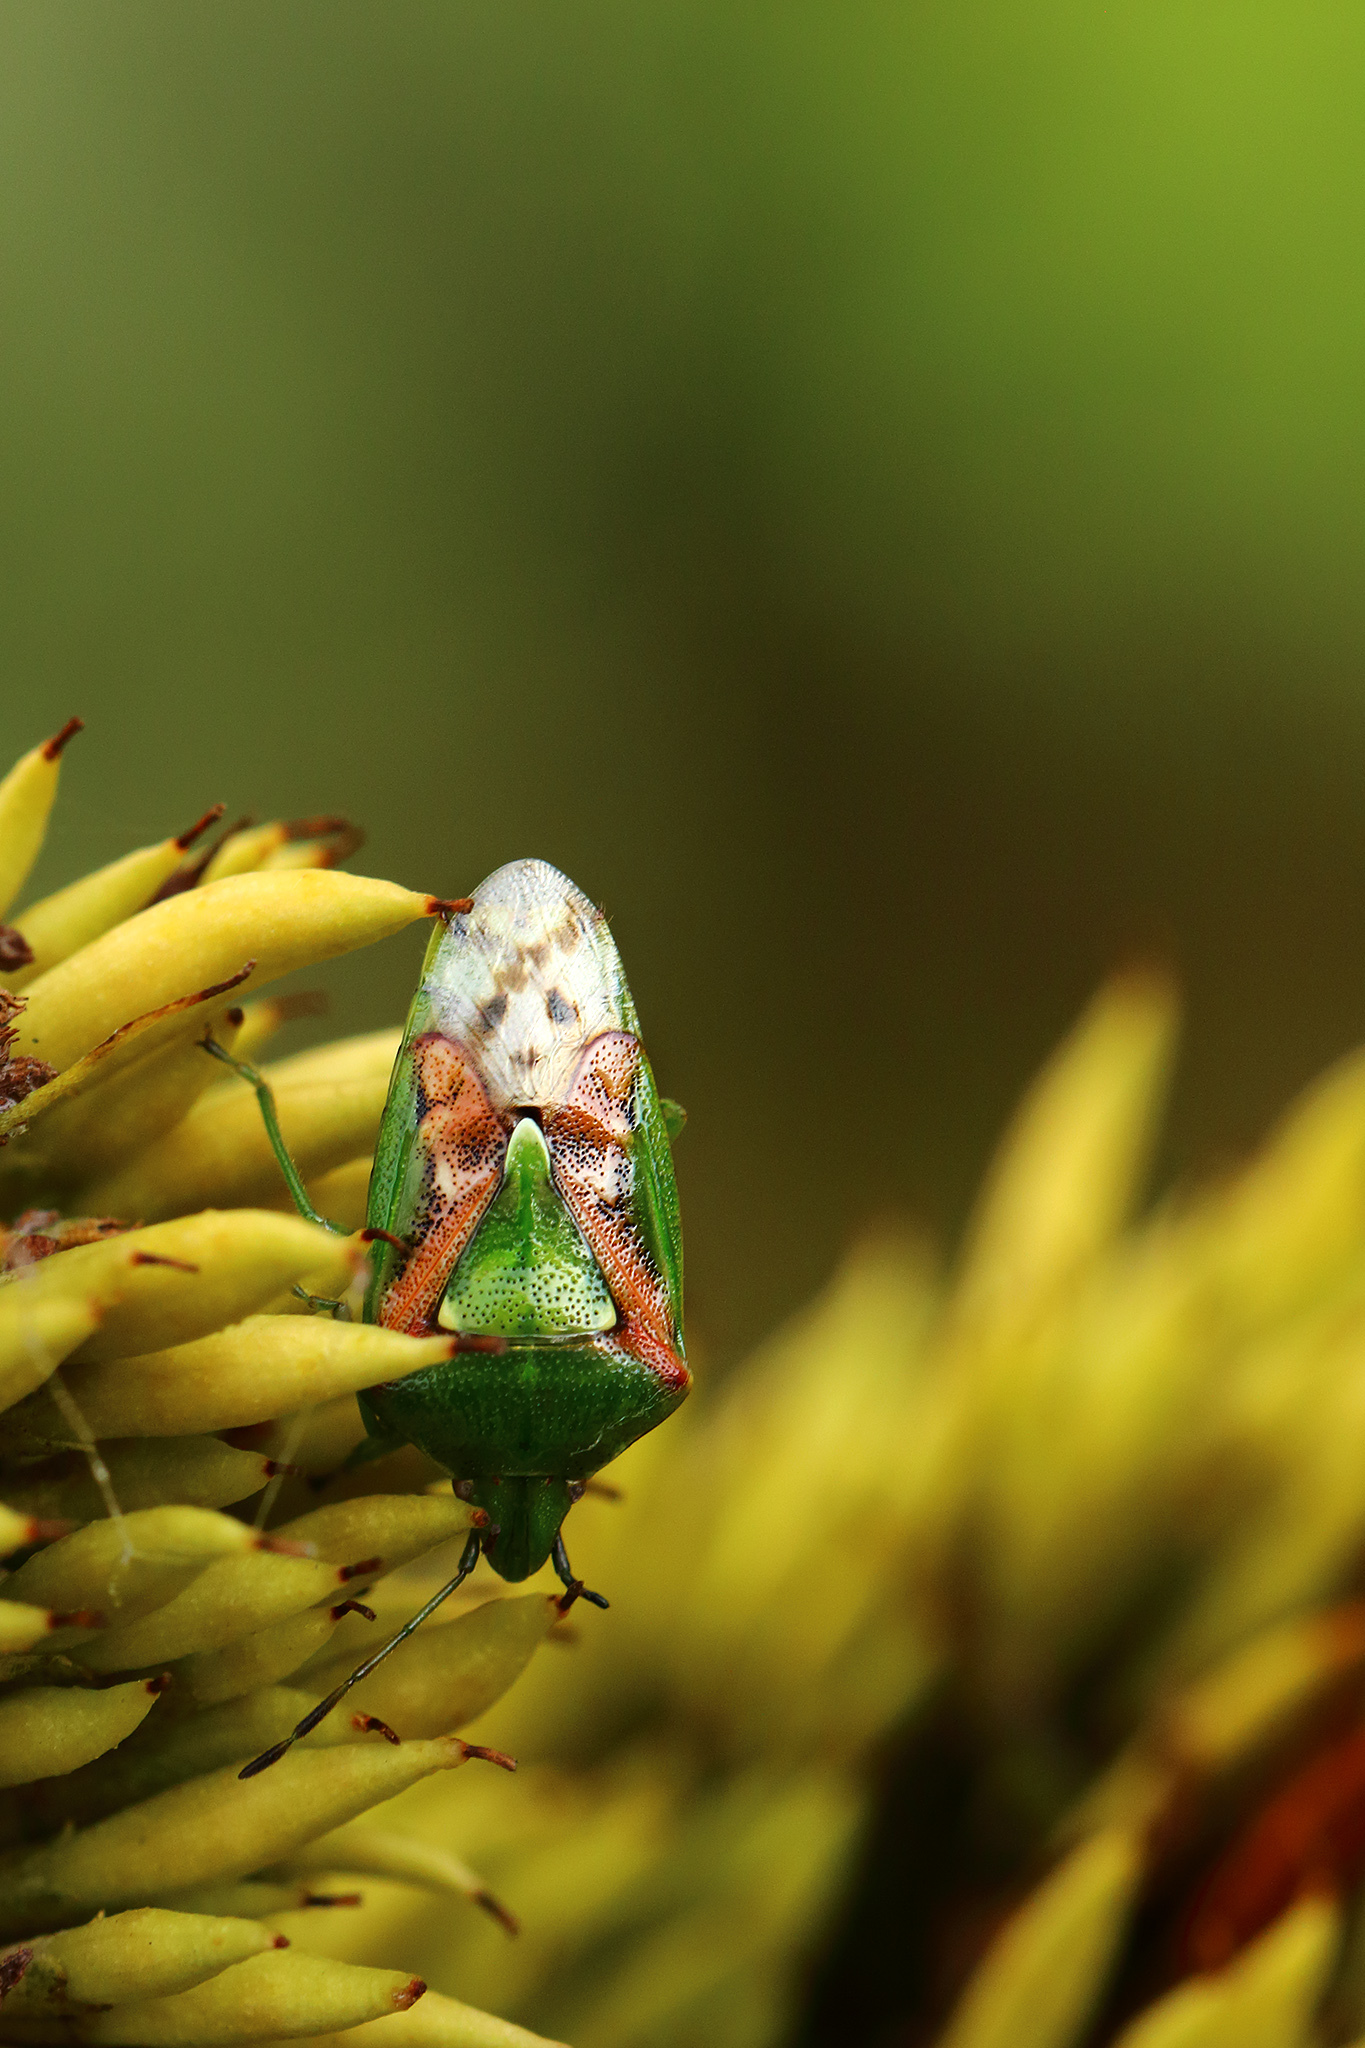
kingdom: Animalia
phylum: Arthropoda
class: Insecta
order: Hemiptera
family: Acanthosomatidae
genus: Cyphostethus
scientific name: Cyphostethus tristriatus
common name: Juniper shieldbug
